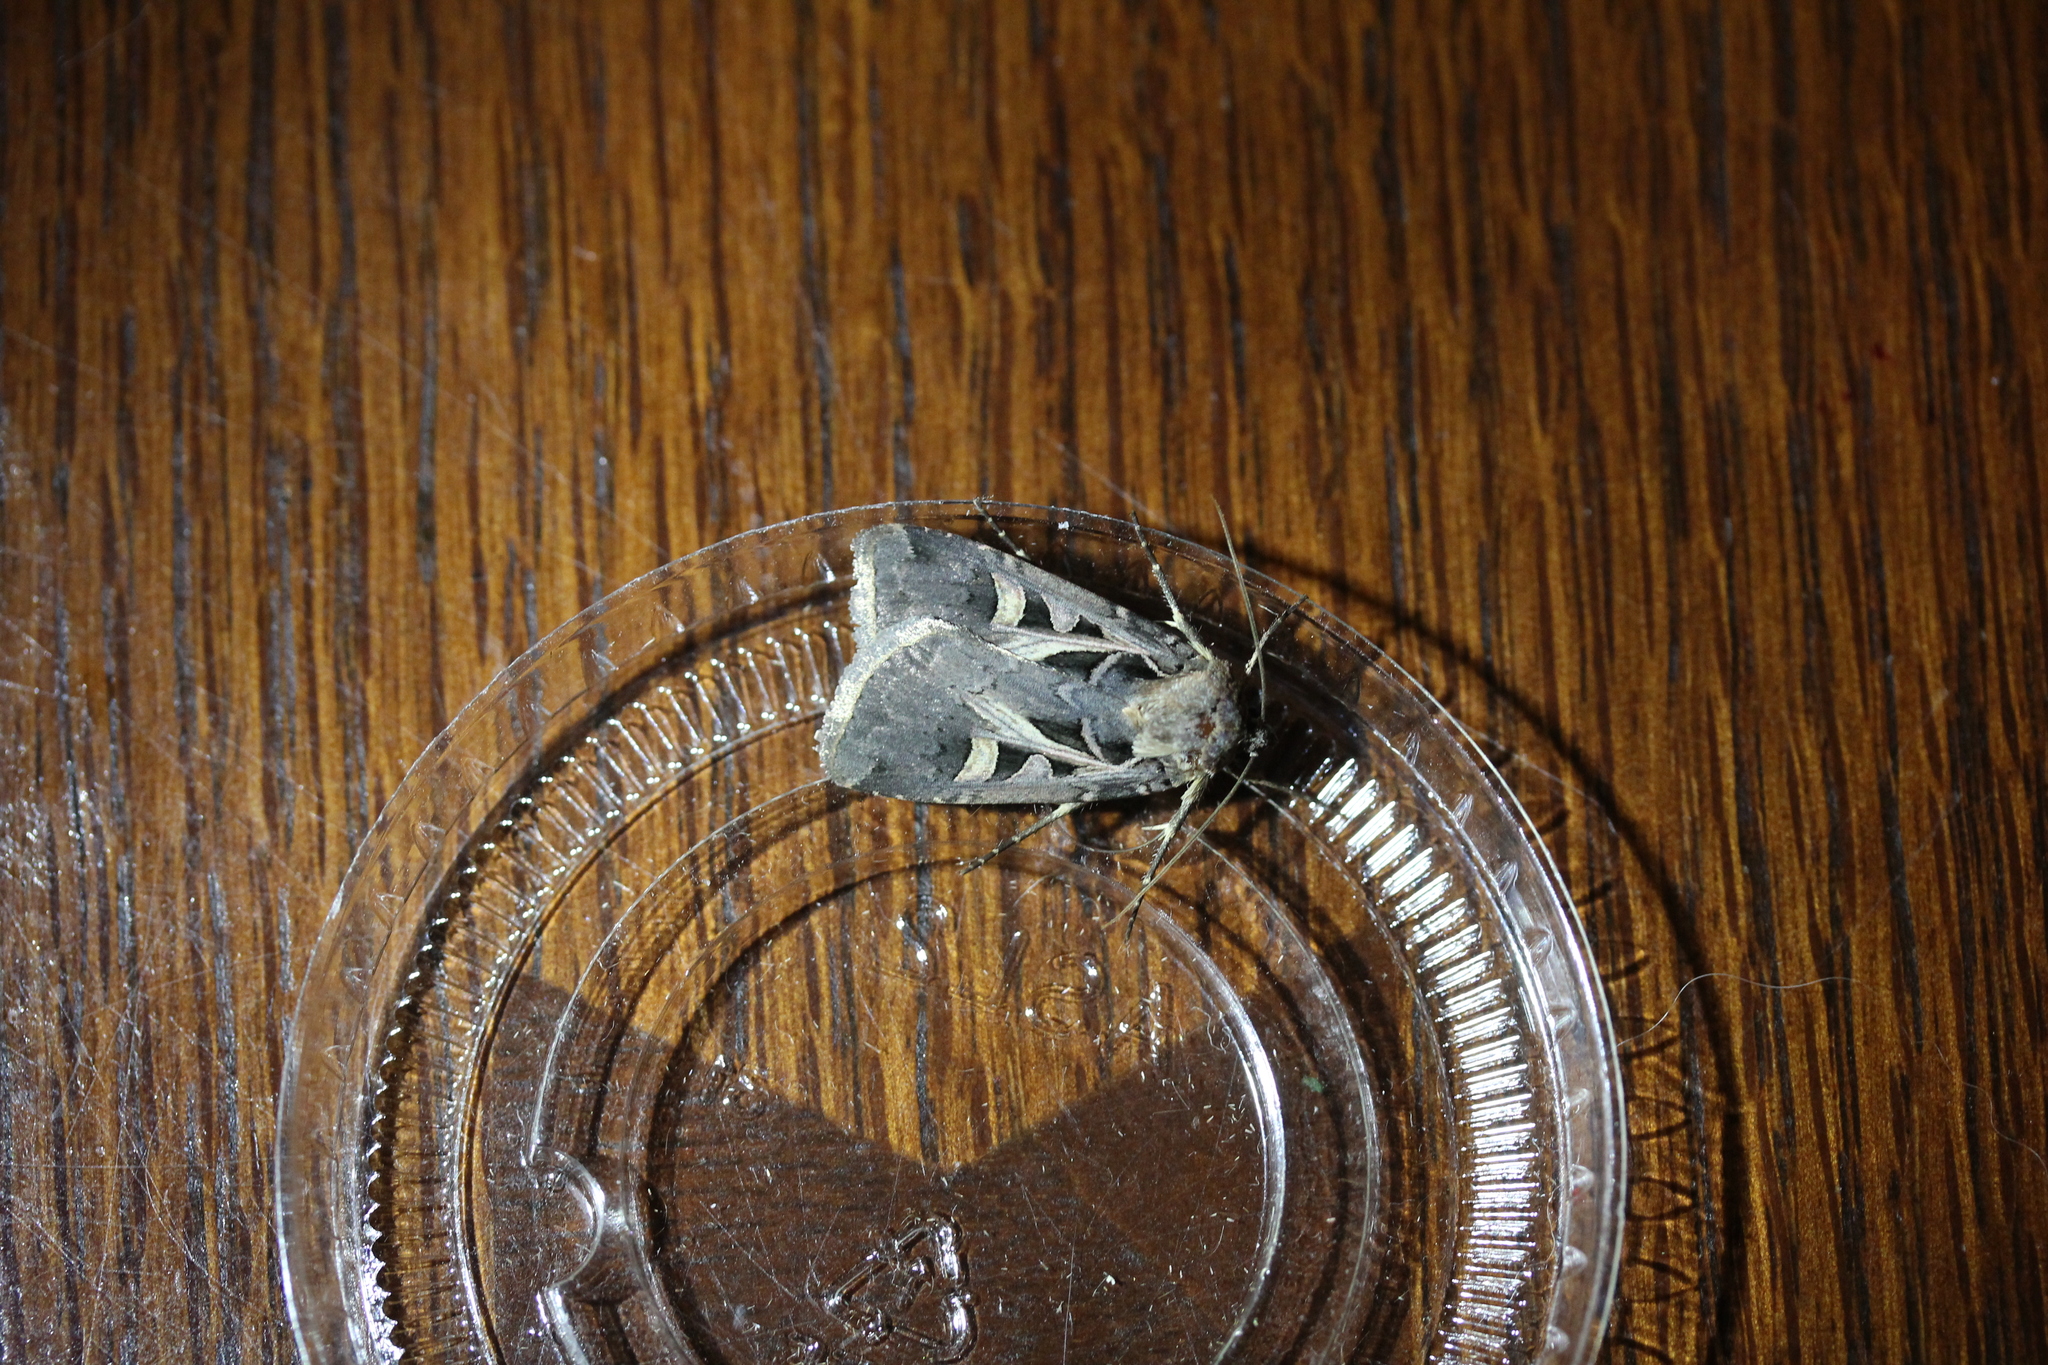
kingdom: Animalia
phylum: Arthropoda
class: Insecta
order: Lepidoptera
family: Noctuidae
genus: Feltia
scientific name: Feltia herilis
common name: Master's dart
